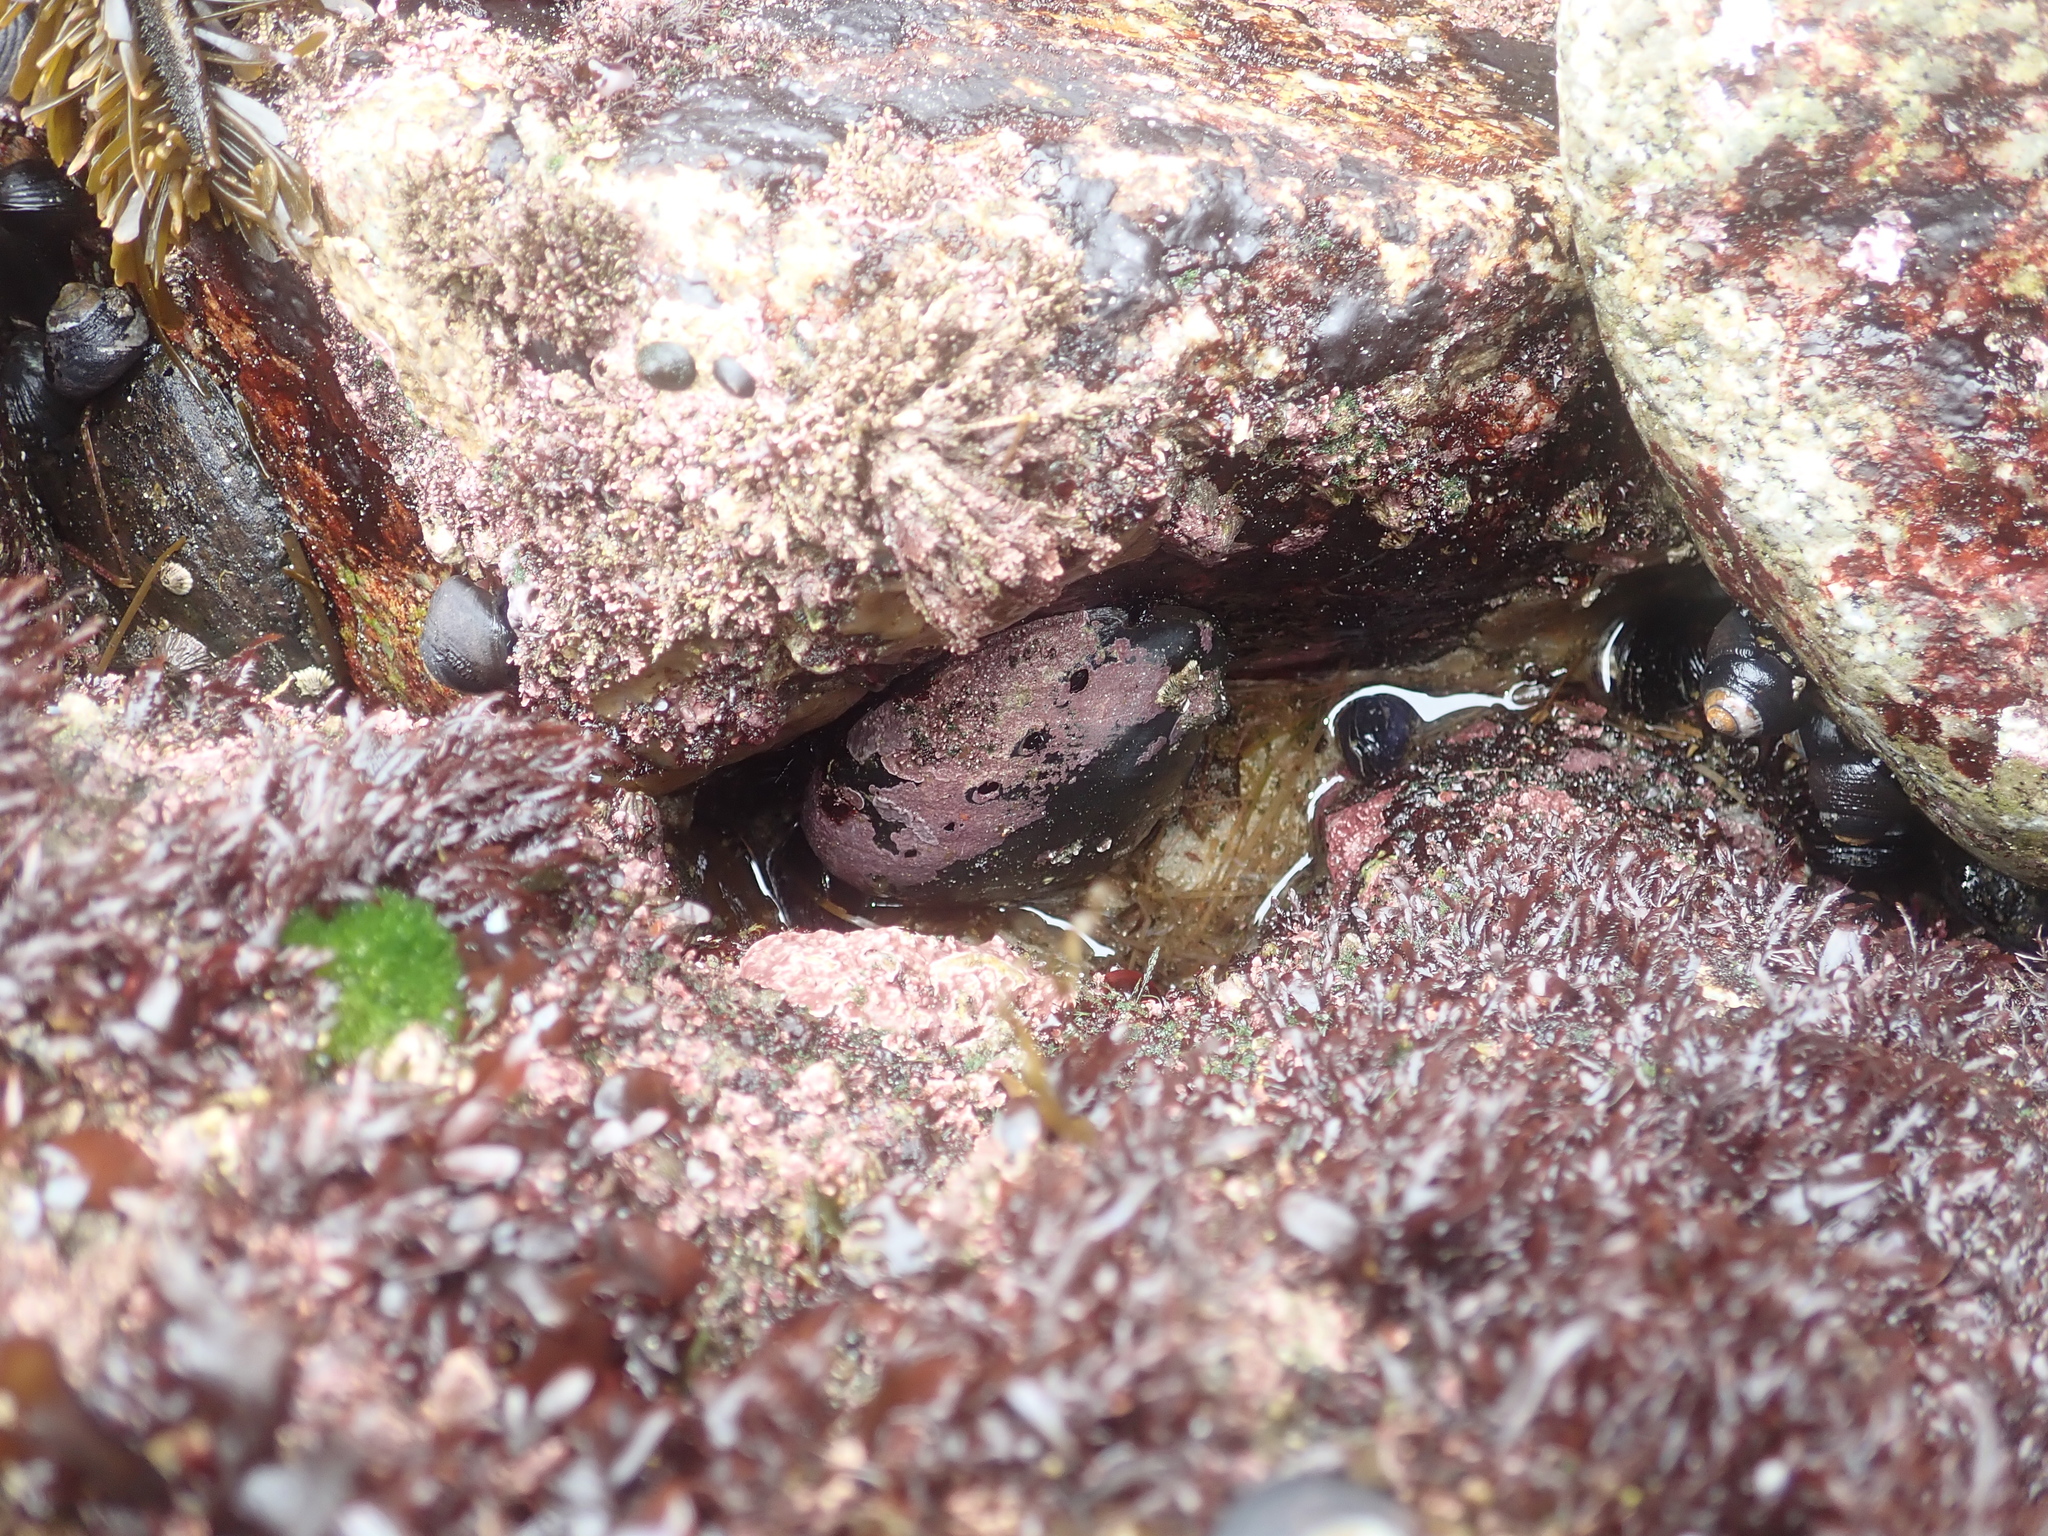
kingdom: Animalia
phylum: Mollusca
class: Gastropoda
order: Lepetellida
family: Haliotidae
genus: Haliotis
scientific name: Haliotis cracherodii
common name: Black abalone
